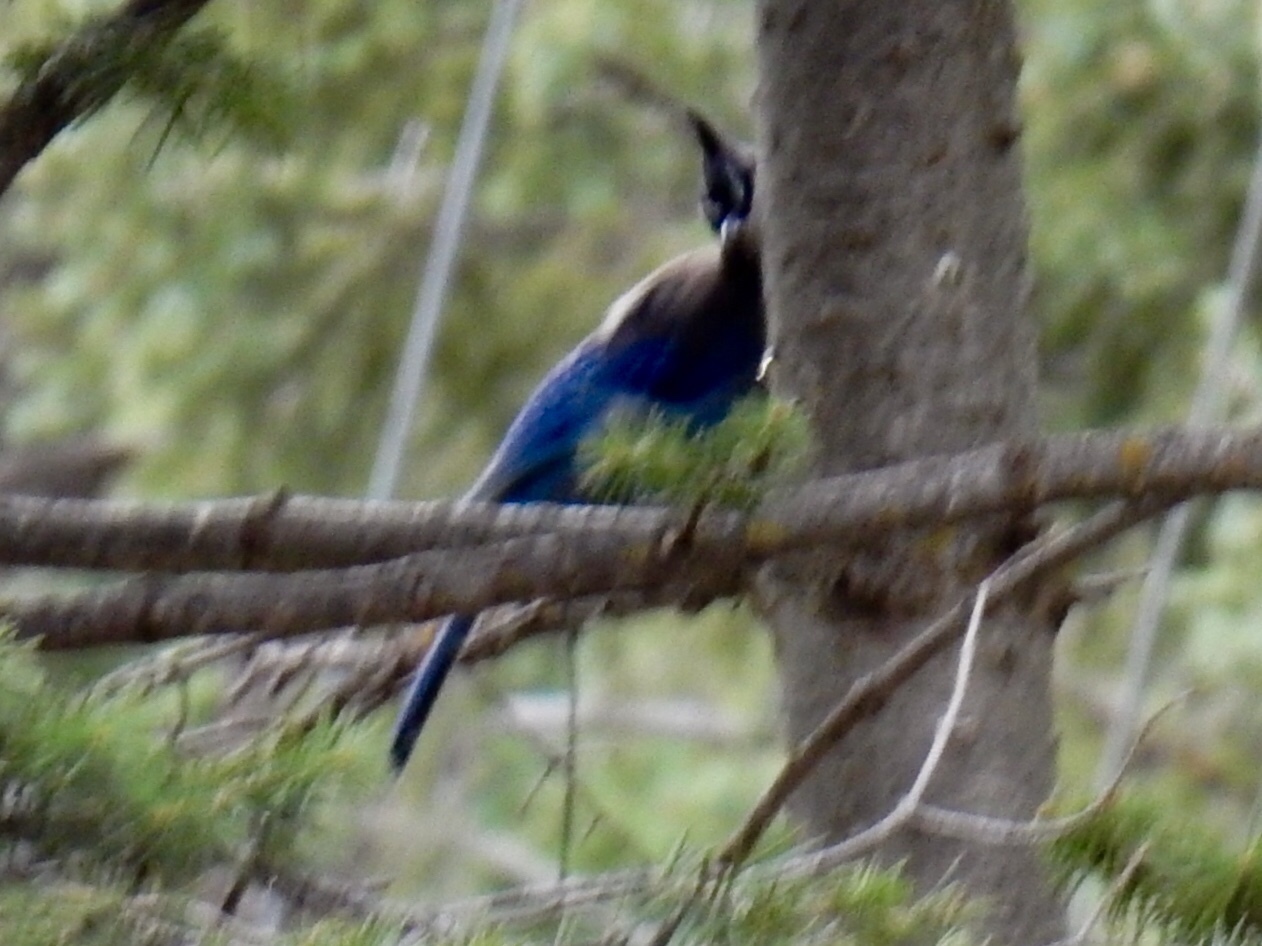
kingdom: Animalia
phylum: Chordata
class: Aves
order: Passeriformes
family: Corvidae
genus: Cyanocitta
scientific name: Cyanocitta stelleri
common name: Steller's jay
